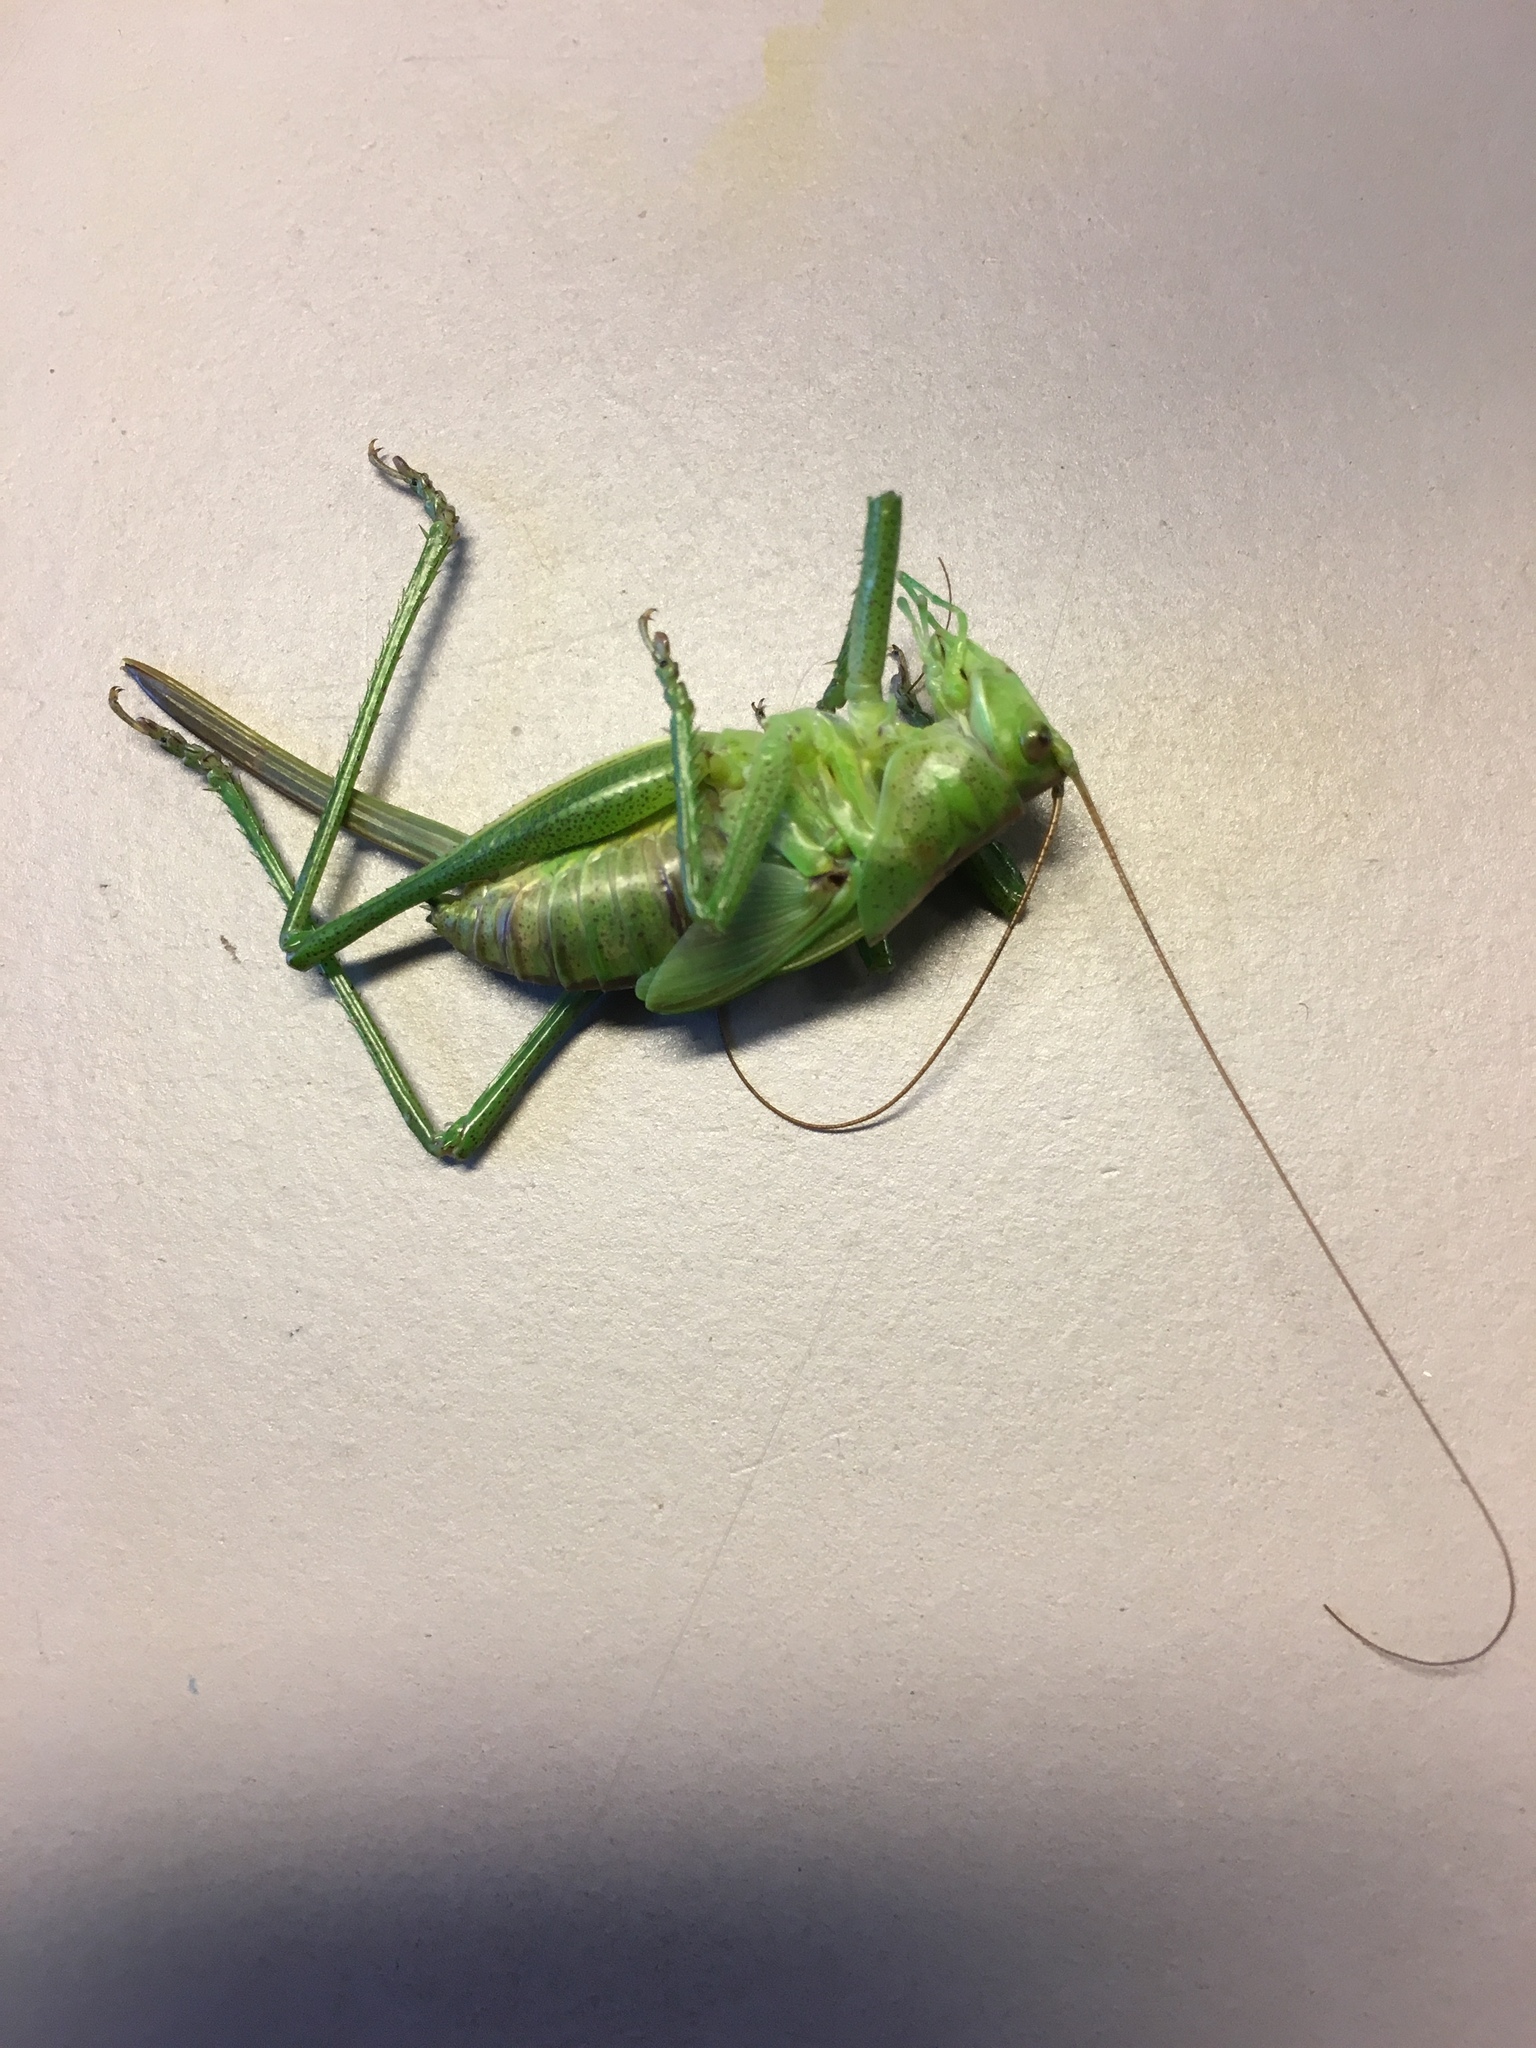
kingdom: Animalia
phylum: Arthropoda
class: Insecta
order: Orthoptera
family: Tettigoniidae
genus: Tettigonia
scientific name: Tettigonia viridissima
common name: Great green bush-cricket
